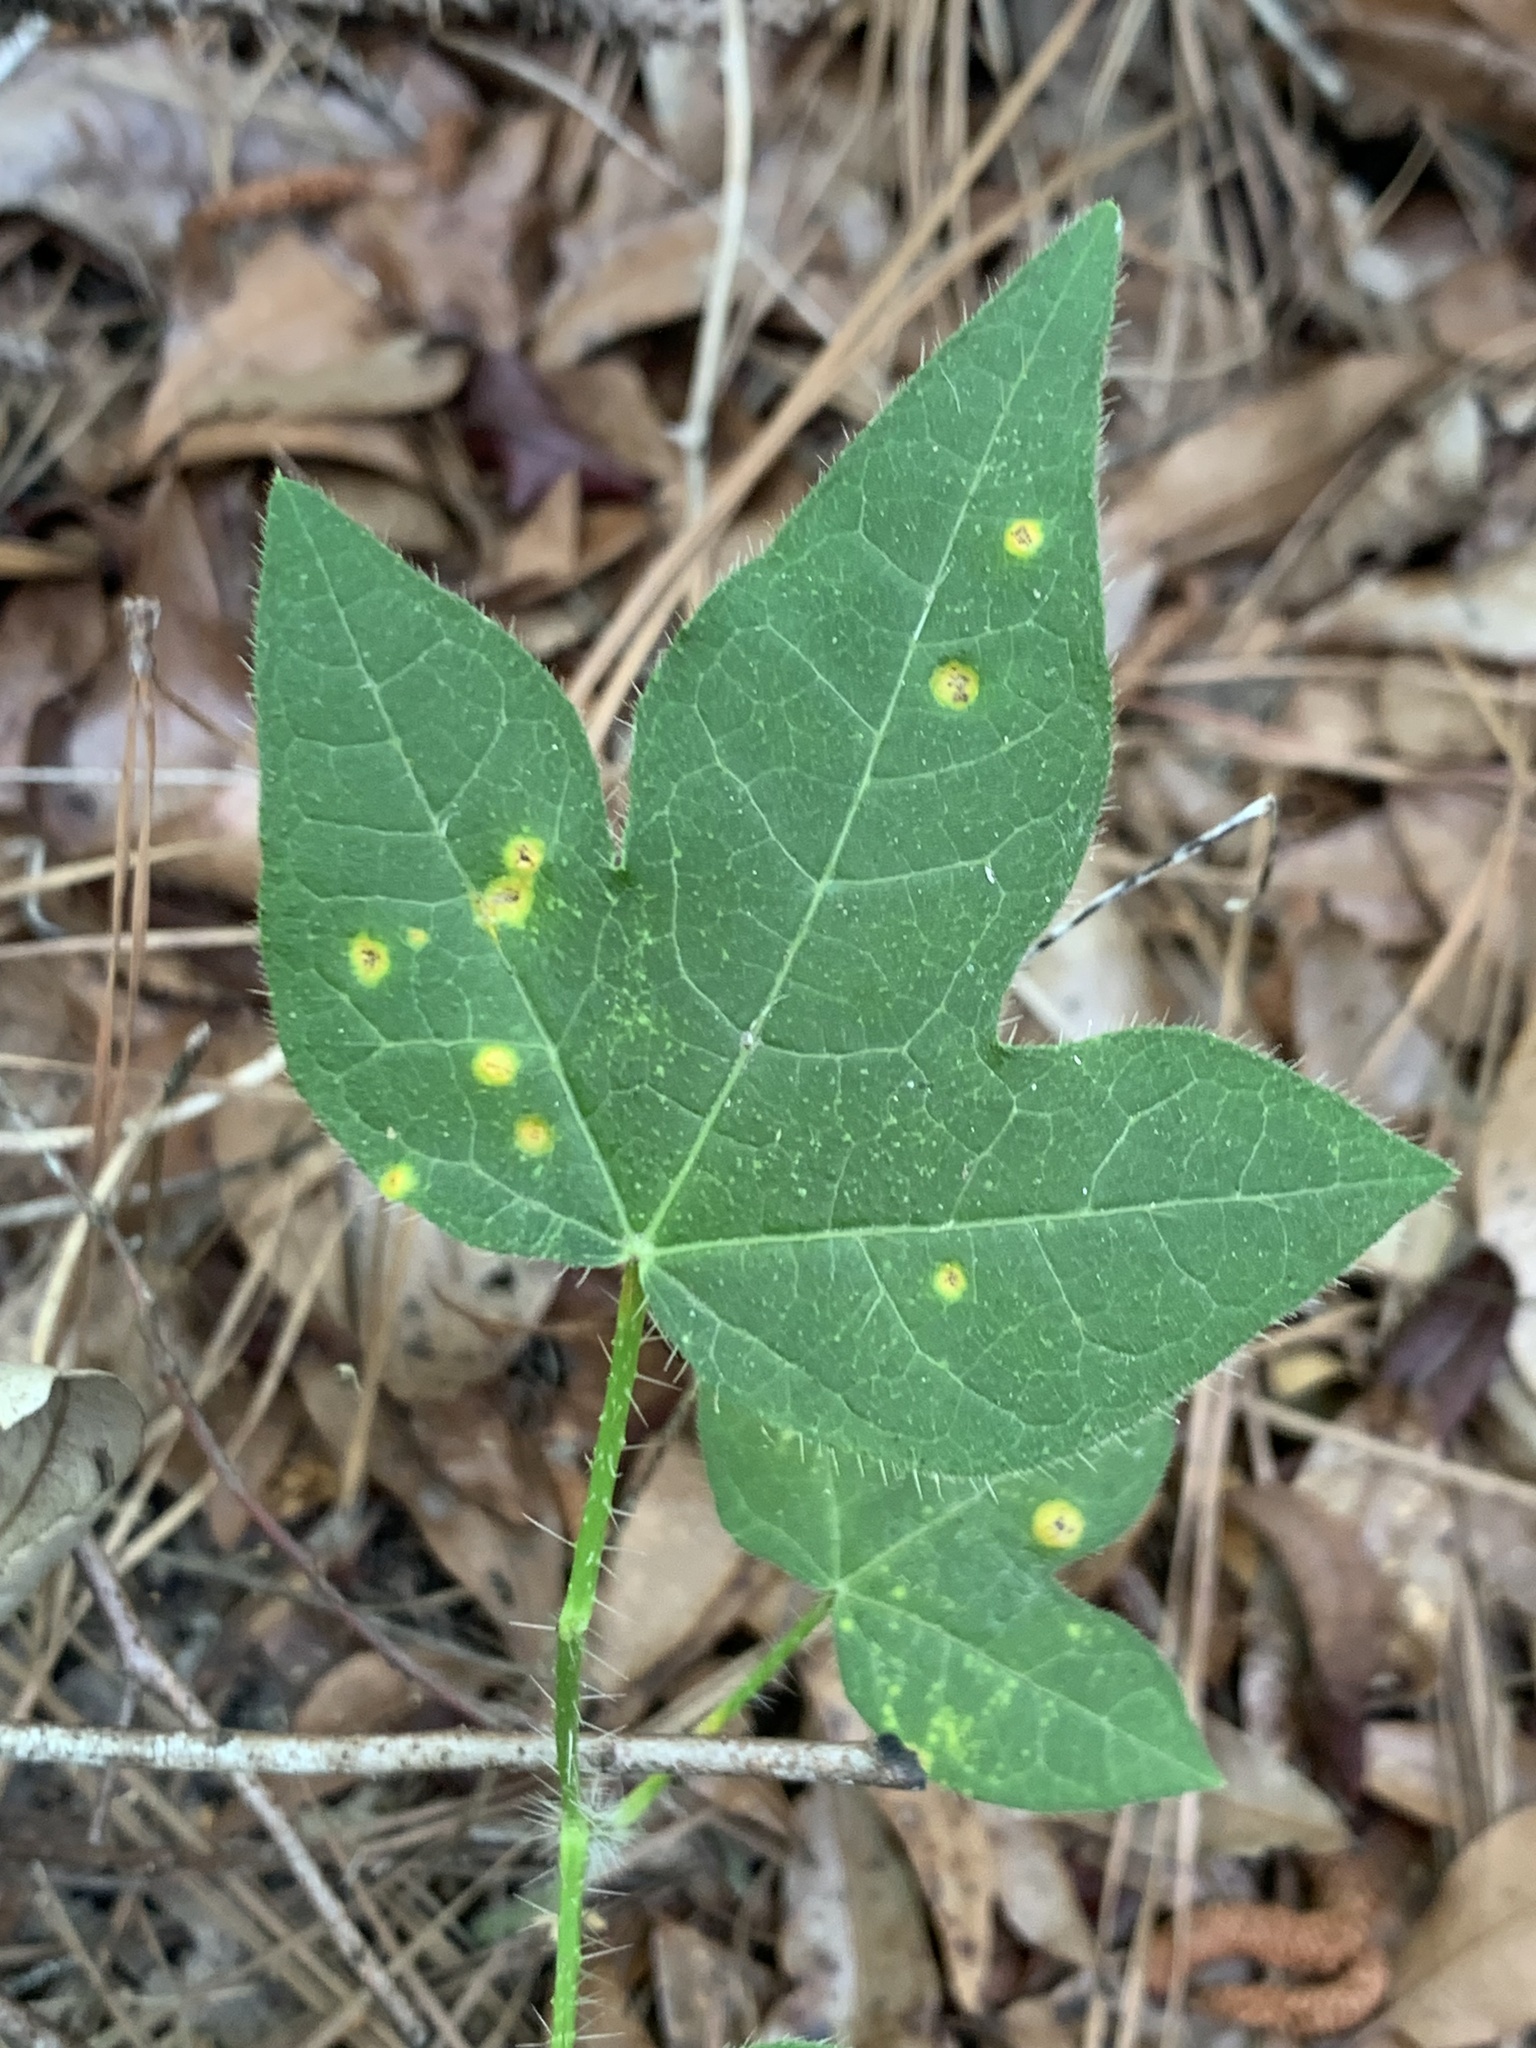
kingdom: Plantae
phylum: Tracheophyta
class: Magnoliopsida
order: Malpighiales
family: Euphorbiaceae
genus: Cnidoscolus
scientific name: Cnidoscolus stimulosus
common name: Bull-nettle
